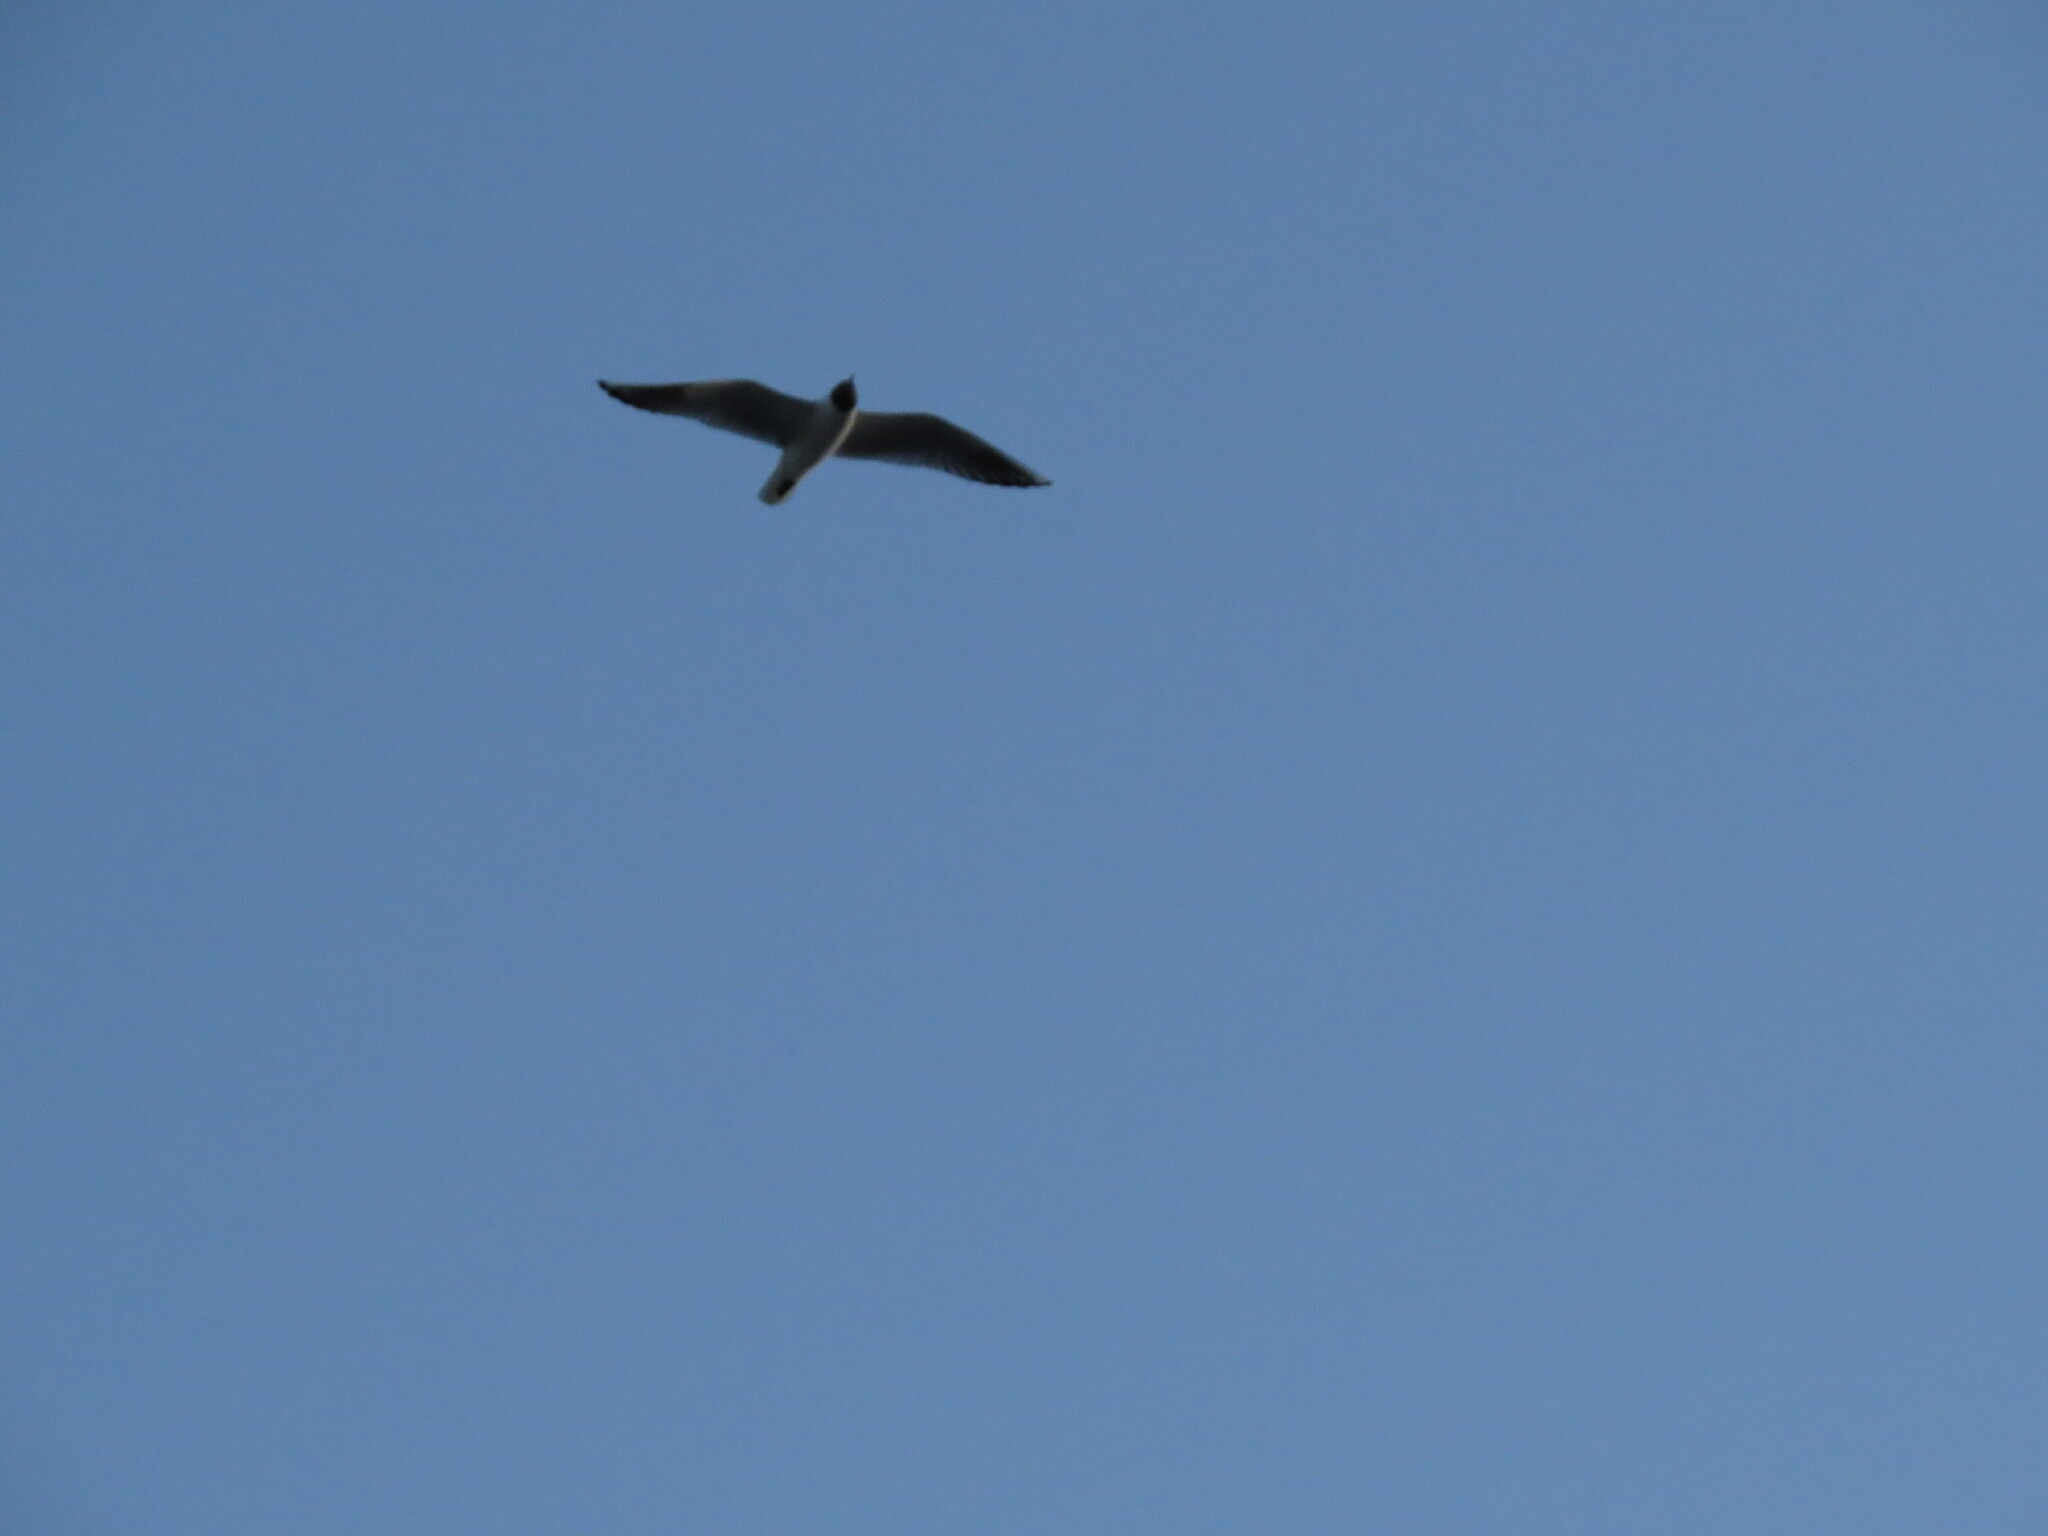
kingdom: Animalia
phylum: Chordata
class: Aves
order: Charadriiformes
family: Laridae
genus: Chroicocephalus
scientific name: Chroicocephalus ridibundus
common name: Black-headed gull
